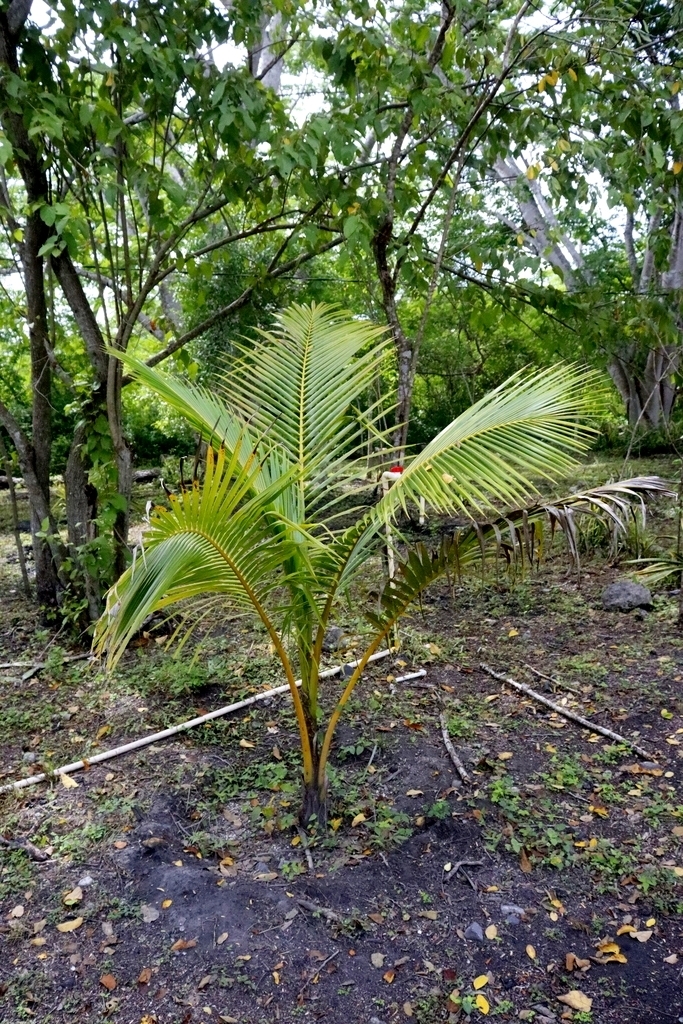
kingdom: Plantae
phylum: Tracheophyta
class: Liliopsida
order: Arecales
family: Arecaceae
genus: Cocos
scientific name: Cocos nucifera
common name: Coconut palm
